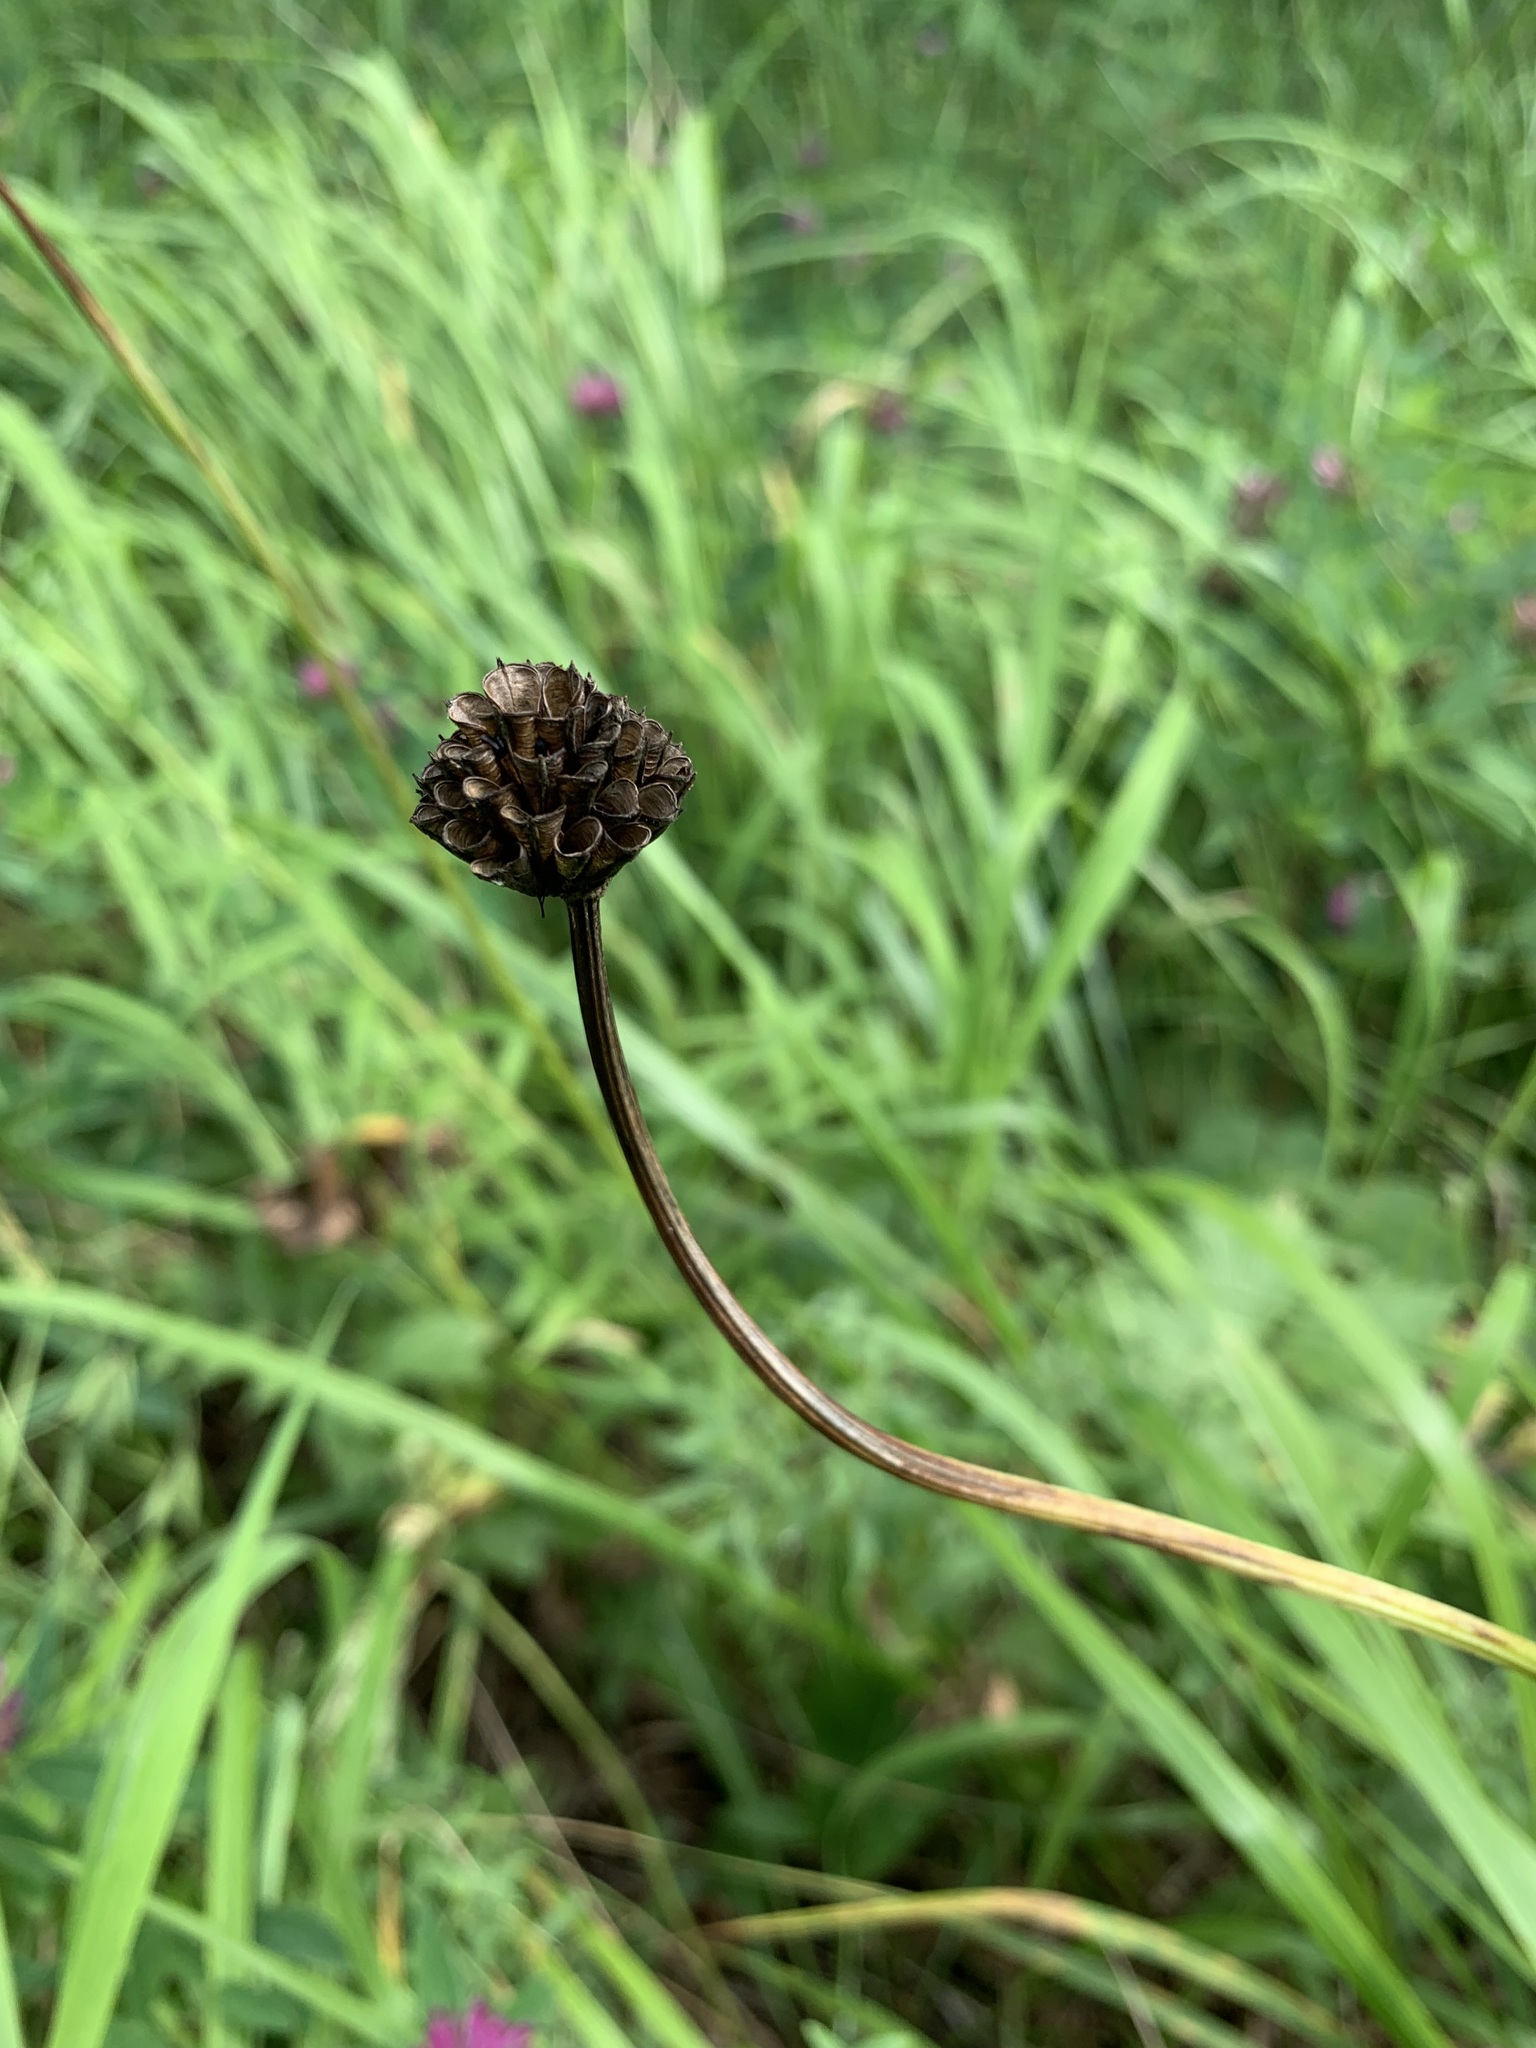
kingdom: Plantae
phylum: Tracheophyta
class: Magnoliopsida
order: Ranunculales
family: Ranunculaceae
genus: Trollius
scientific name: Trollius europaeus
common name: European globeflower
